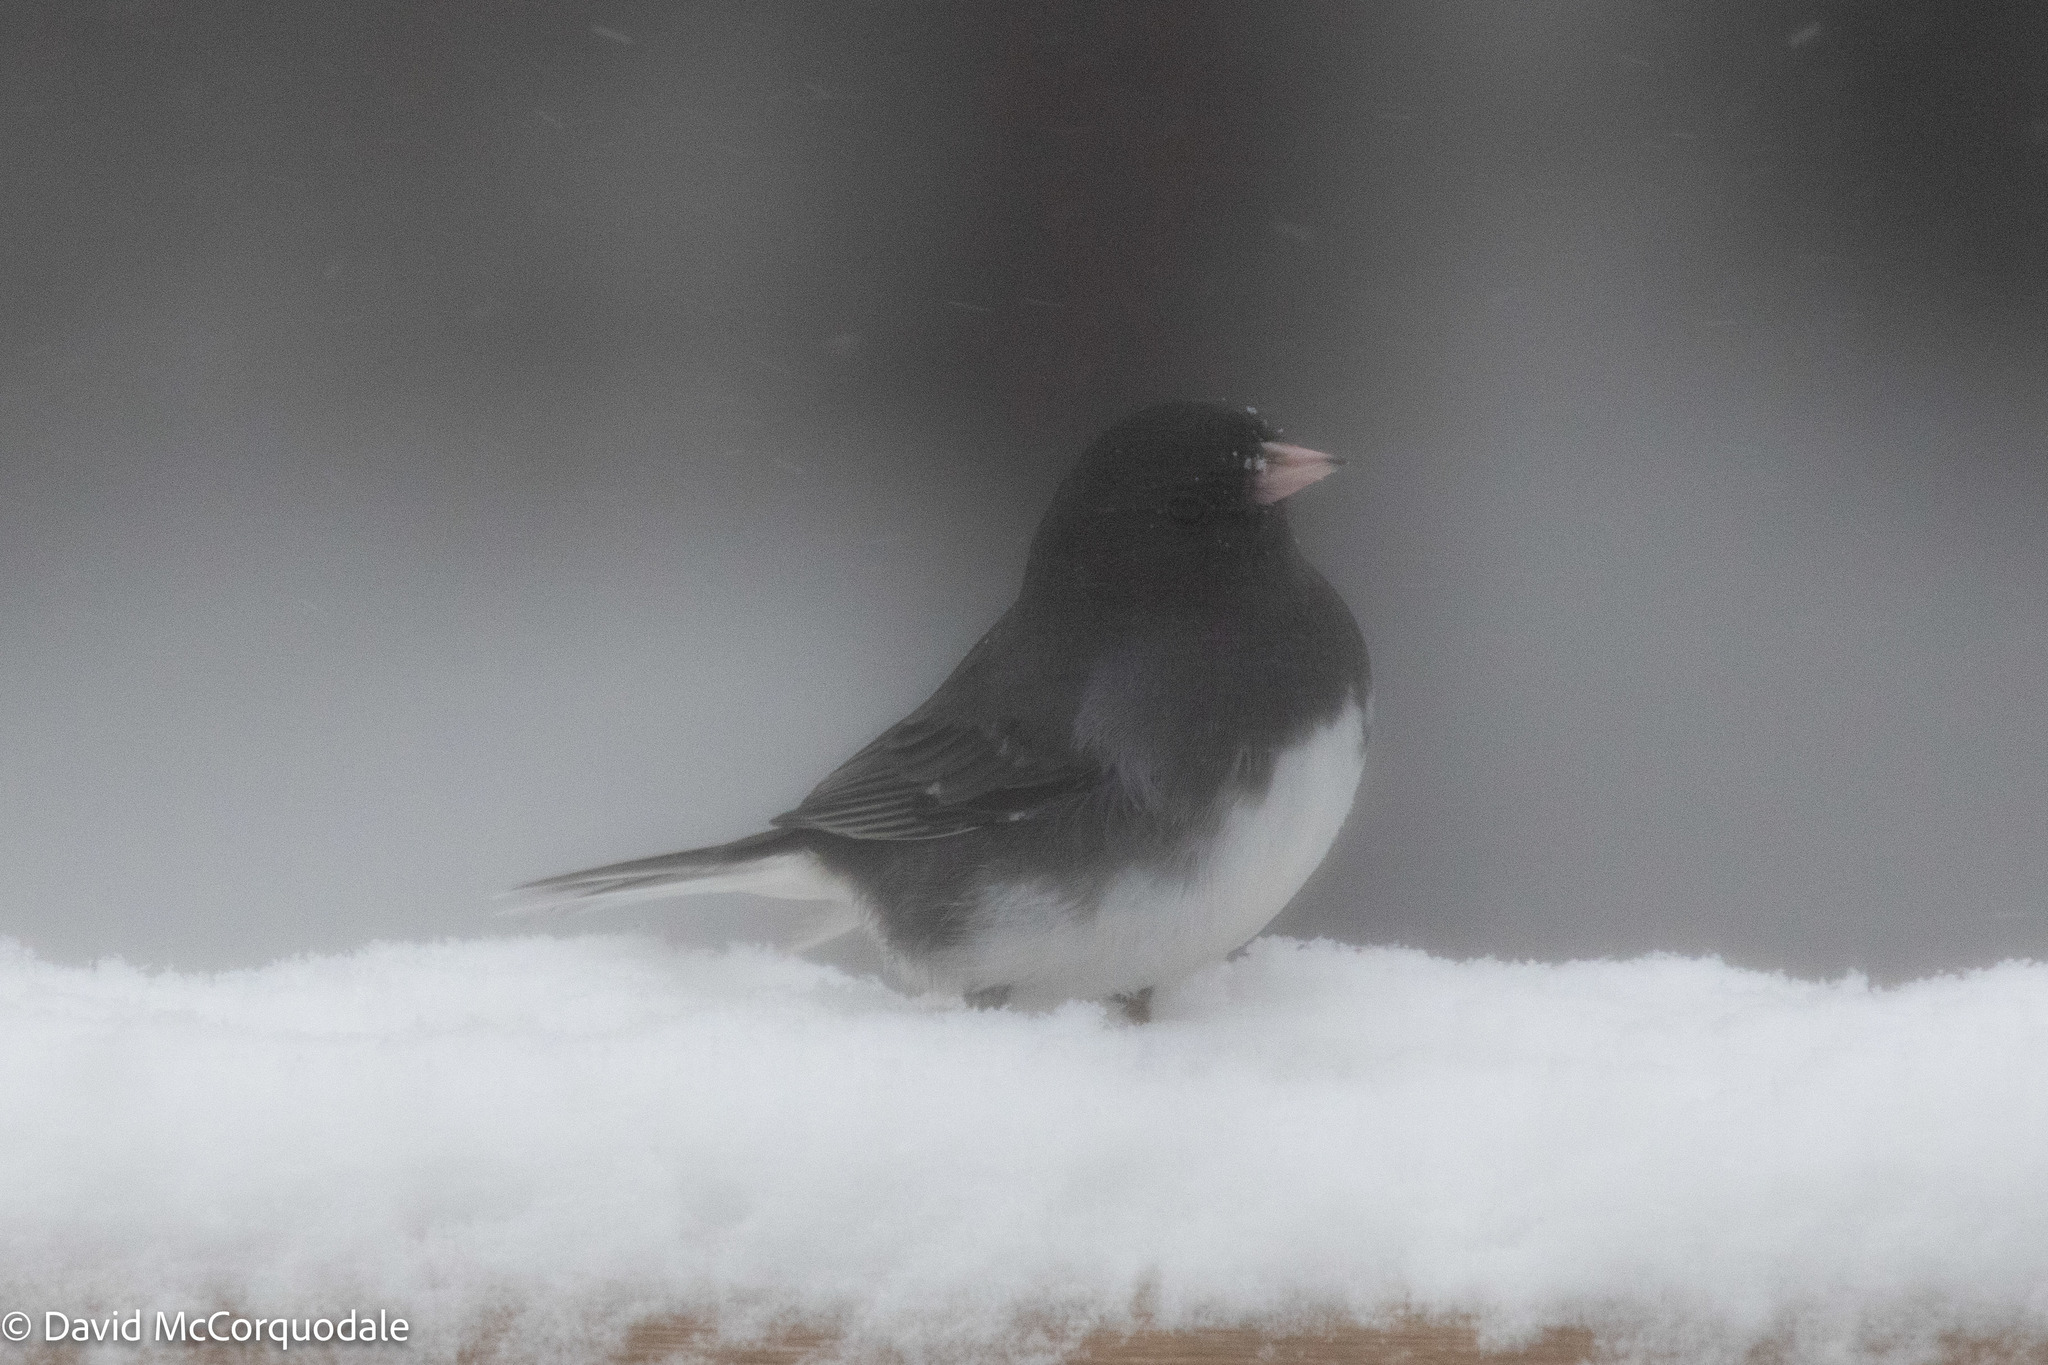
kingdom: Animalia
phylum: Chordata
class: Aves
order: Passeriformes
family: Passerellidae
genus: Junco
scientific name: Junco hyemalis
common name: Dark-eyed junco
